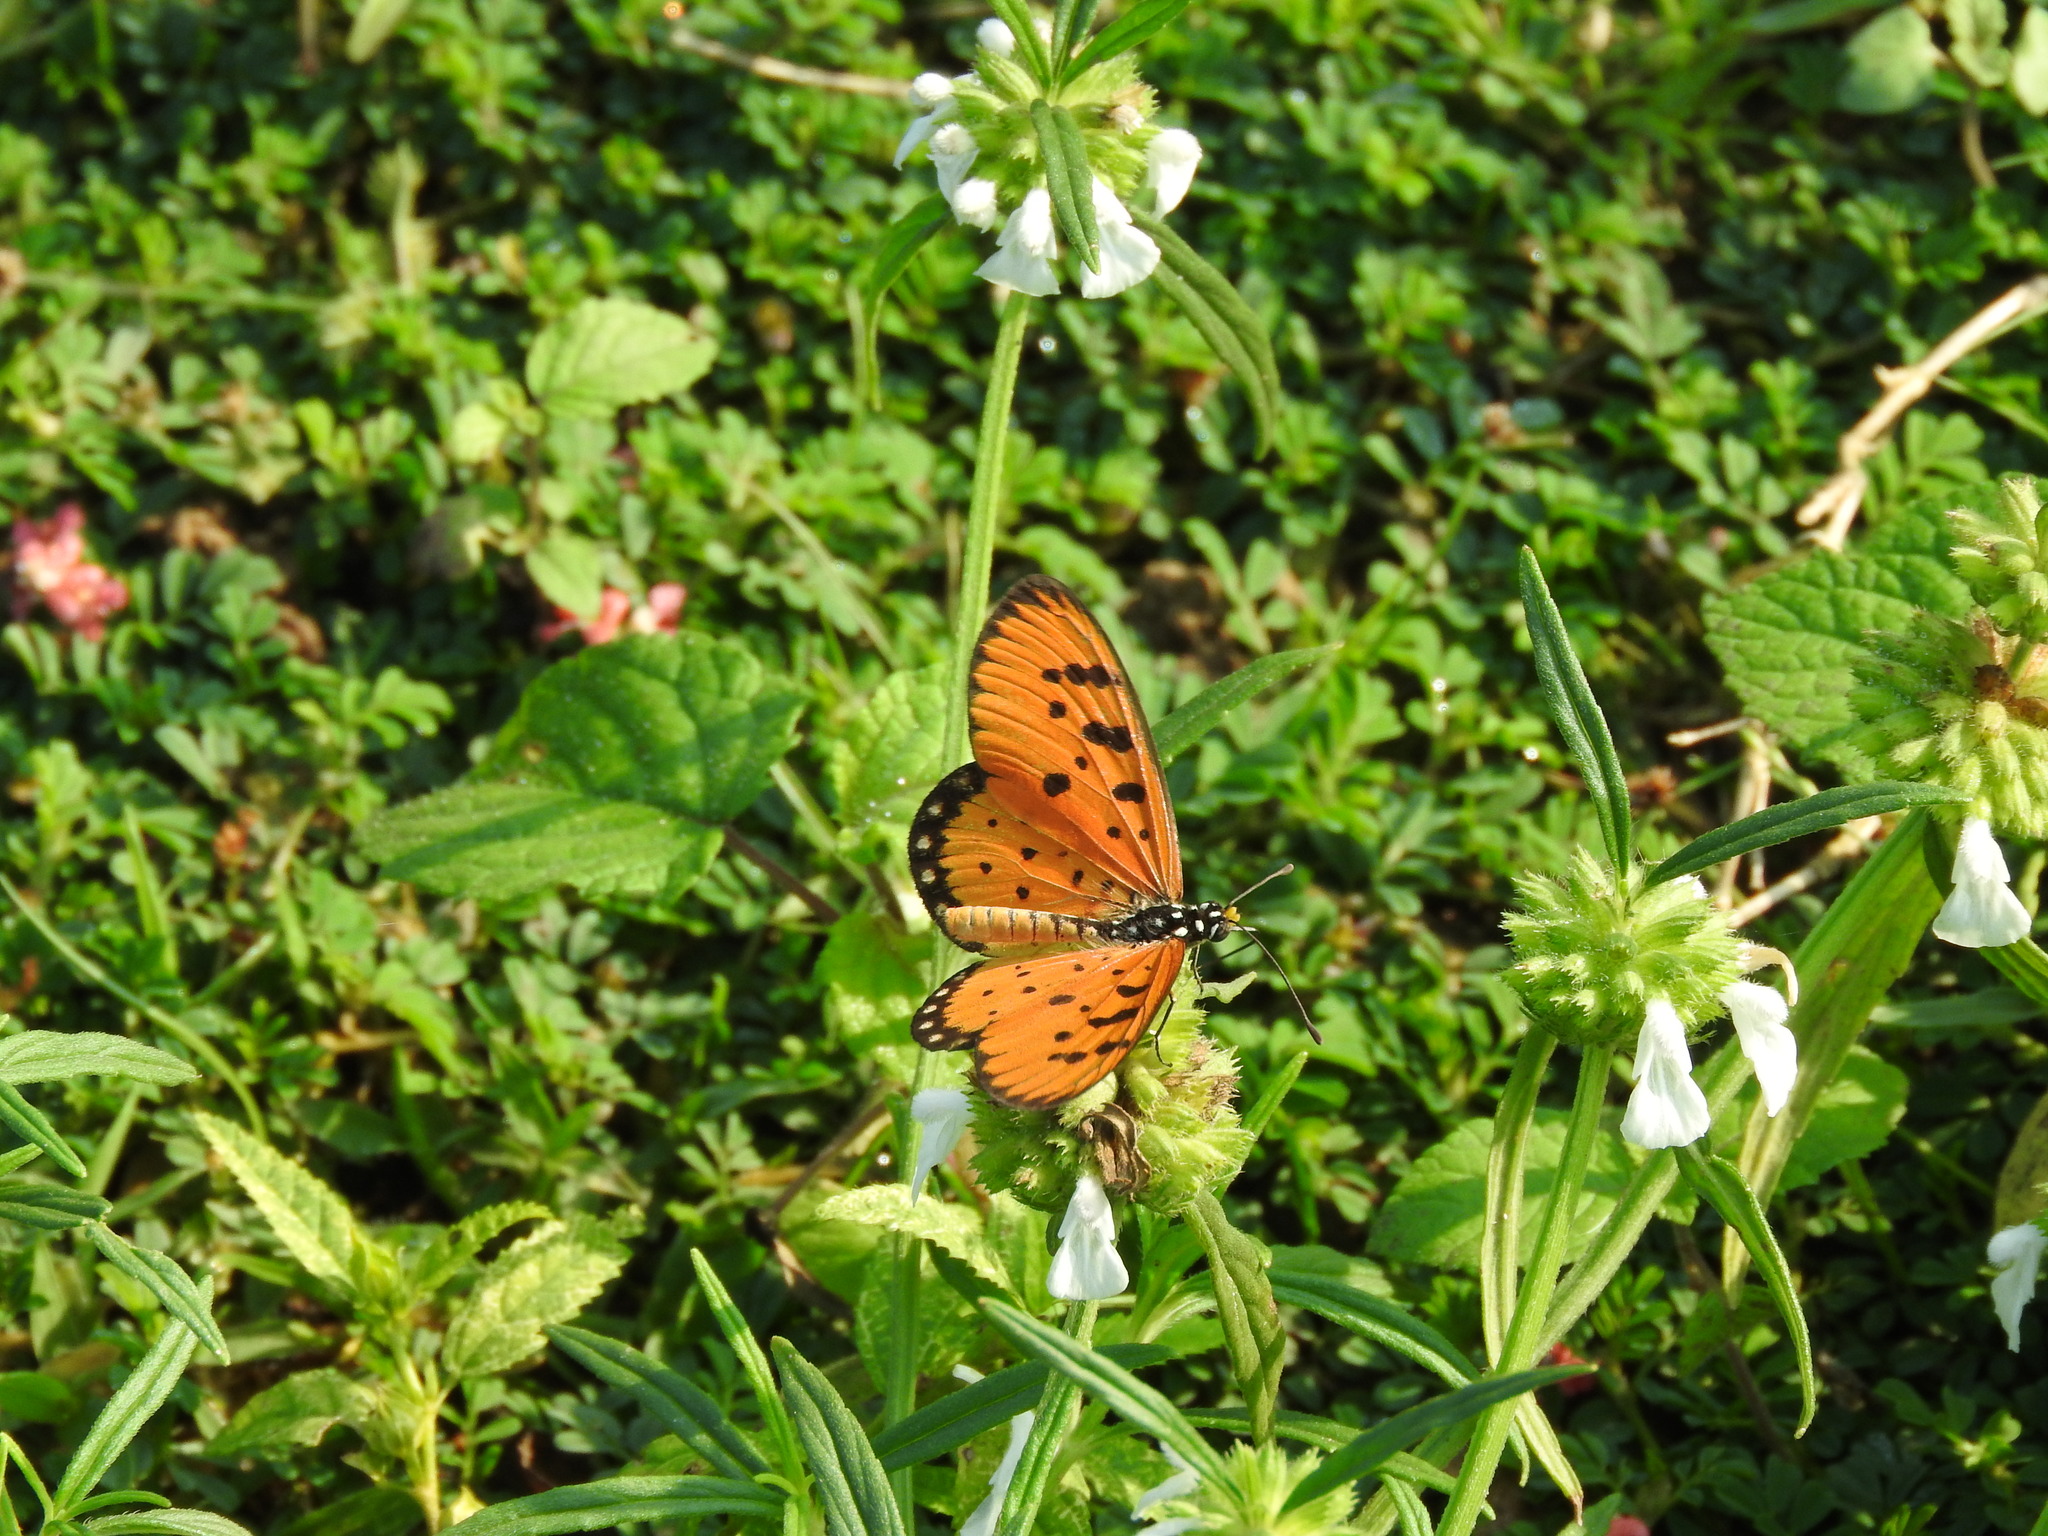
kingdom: Animalia
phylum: Arthropoda
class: Insecta
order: Lepidoptera
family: Nymphalidae
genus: Acraea
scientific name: Acraea terpsicore
